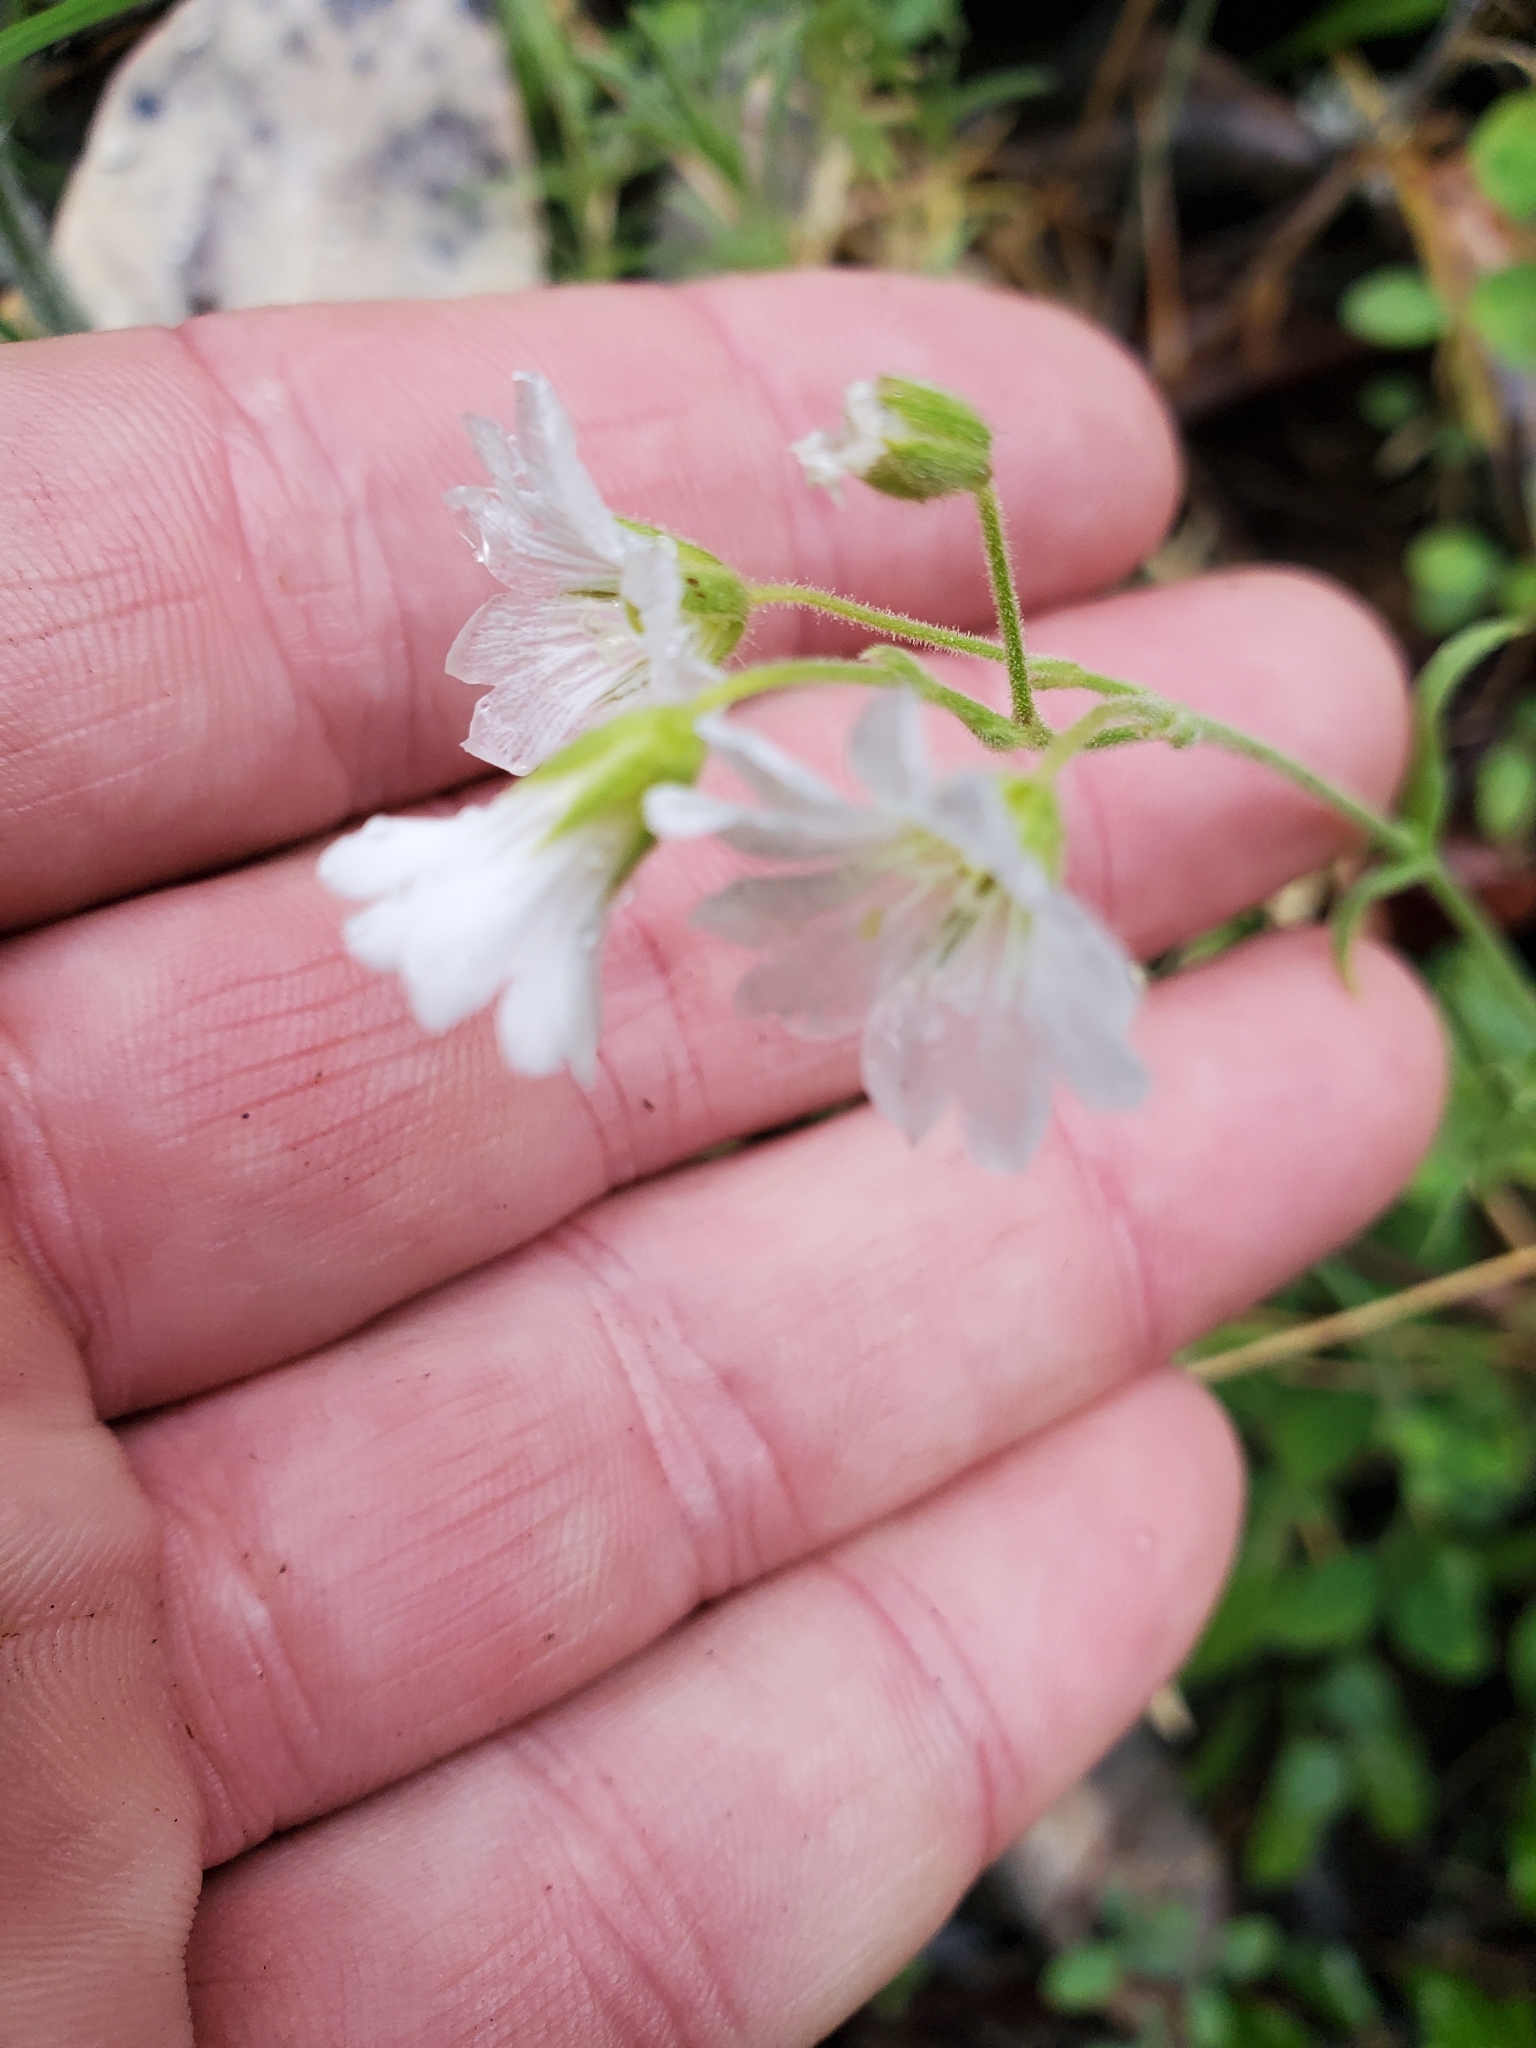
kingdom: Plantae
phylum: Tracheophyta
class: Magnoliopsida
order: Caryophyllales
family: Caryophyllaceae
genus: Cerastium
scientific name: Cerastium arvense
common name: Field mouse-ear
